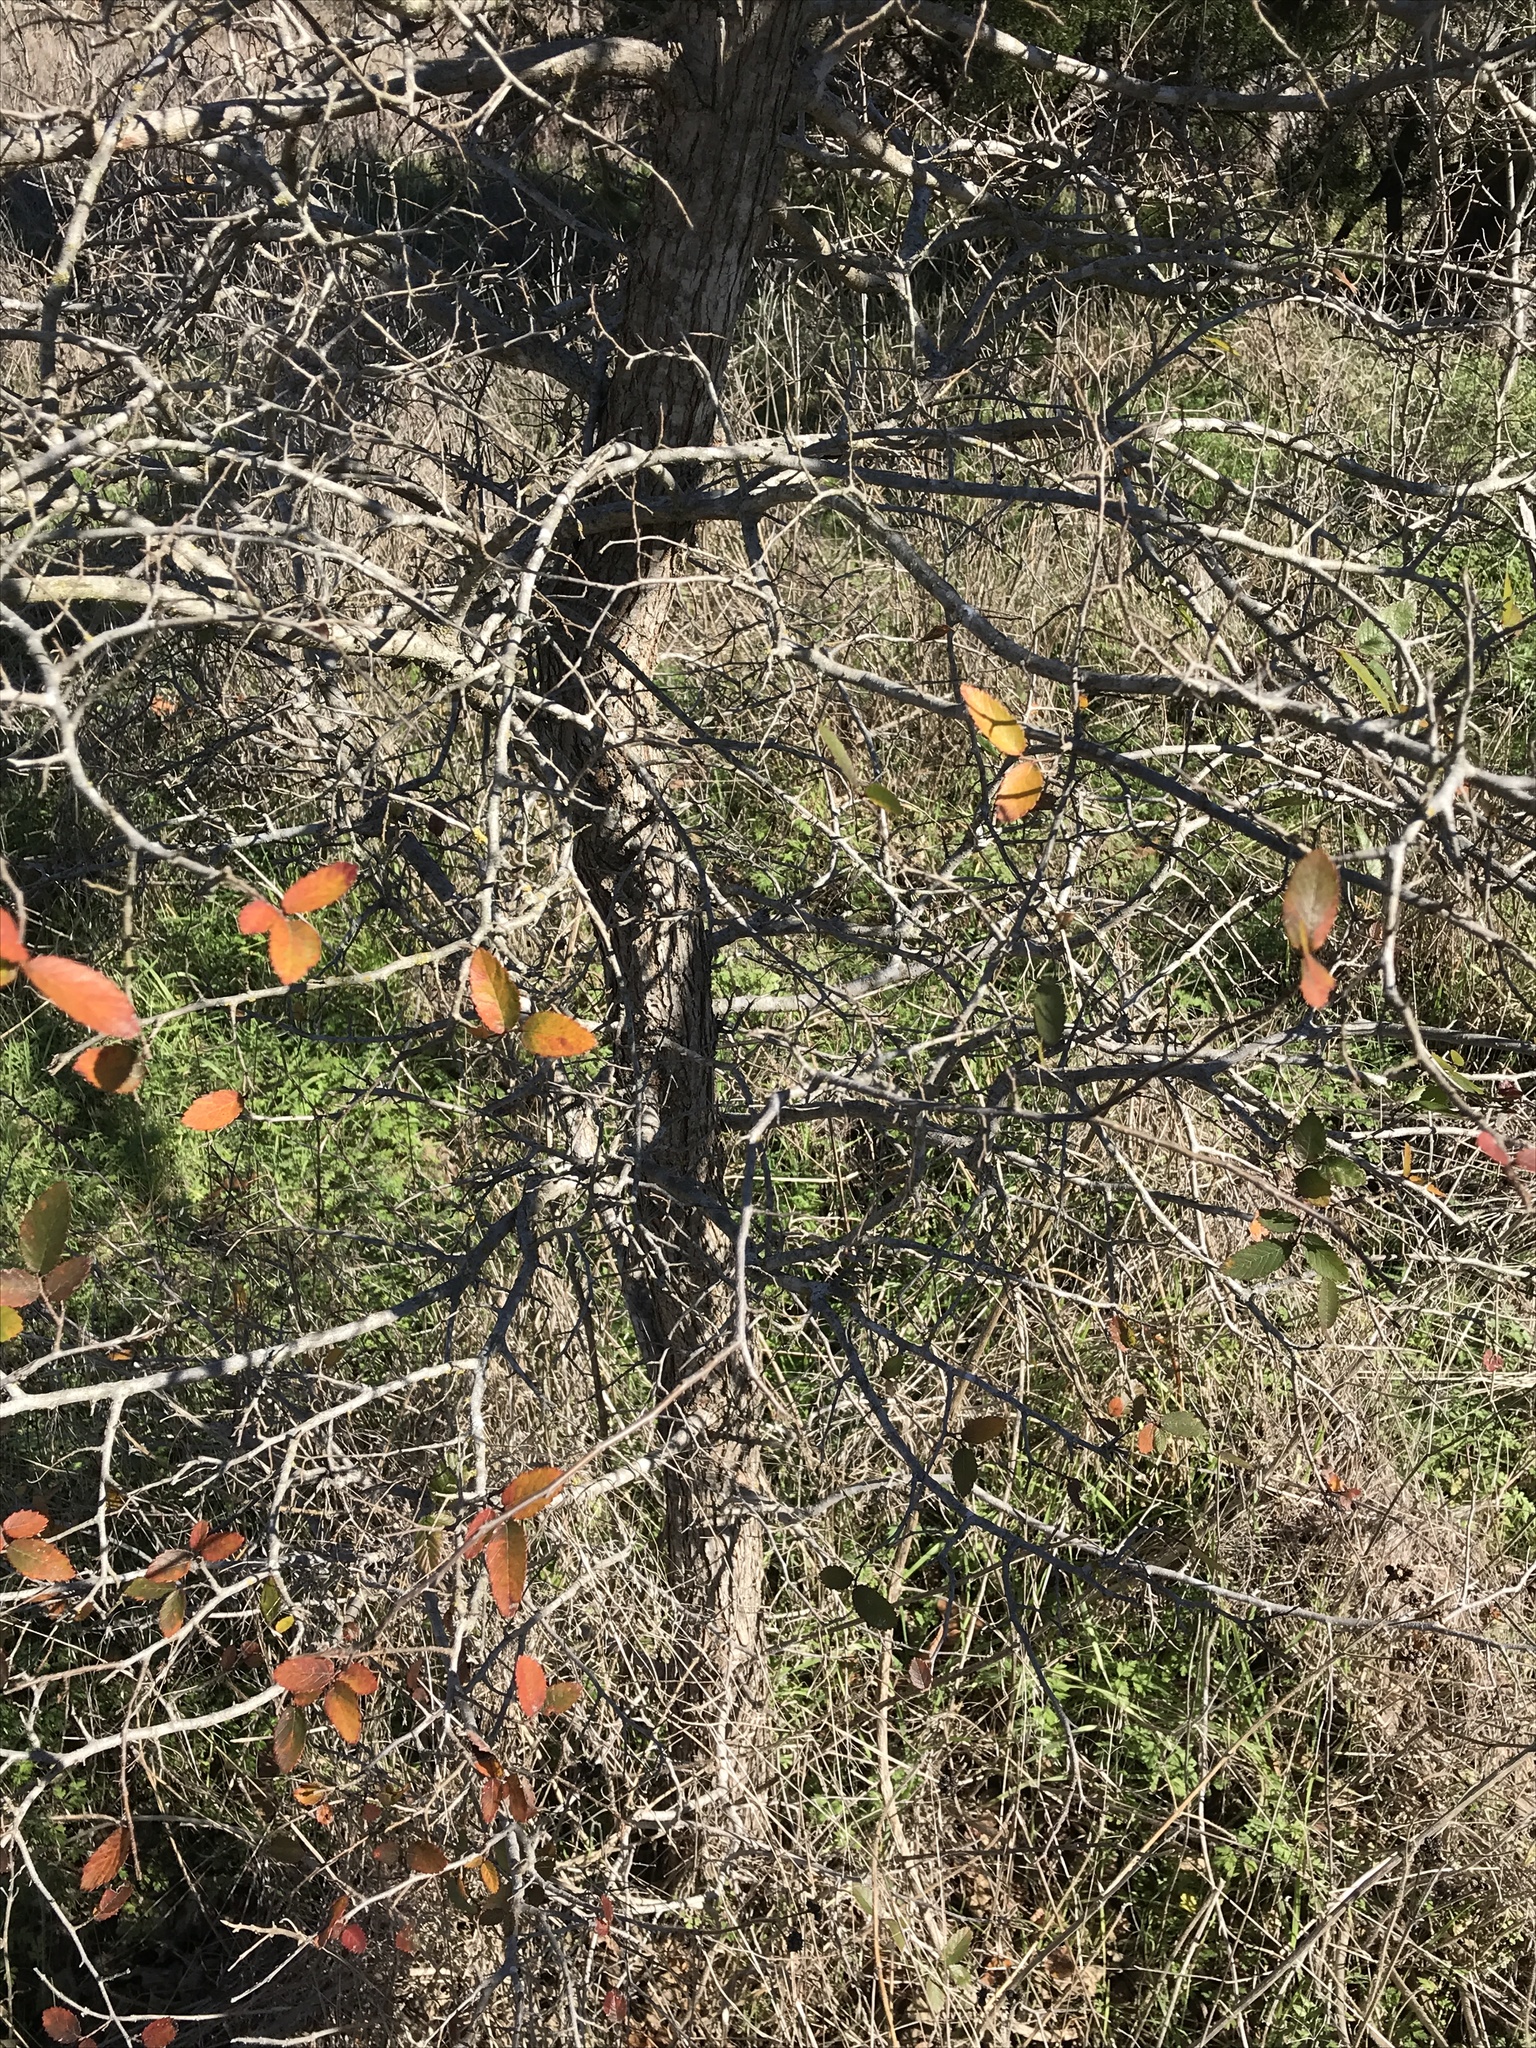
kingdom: Plantae
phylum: Tracheophyta
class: Magnoliopsida
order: Rosales
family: Ulmaceae
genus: Ulmus
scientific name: Ulmus crassifolia
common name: Basket elm
